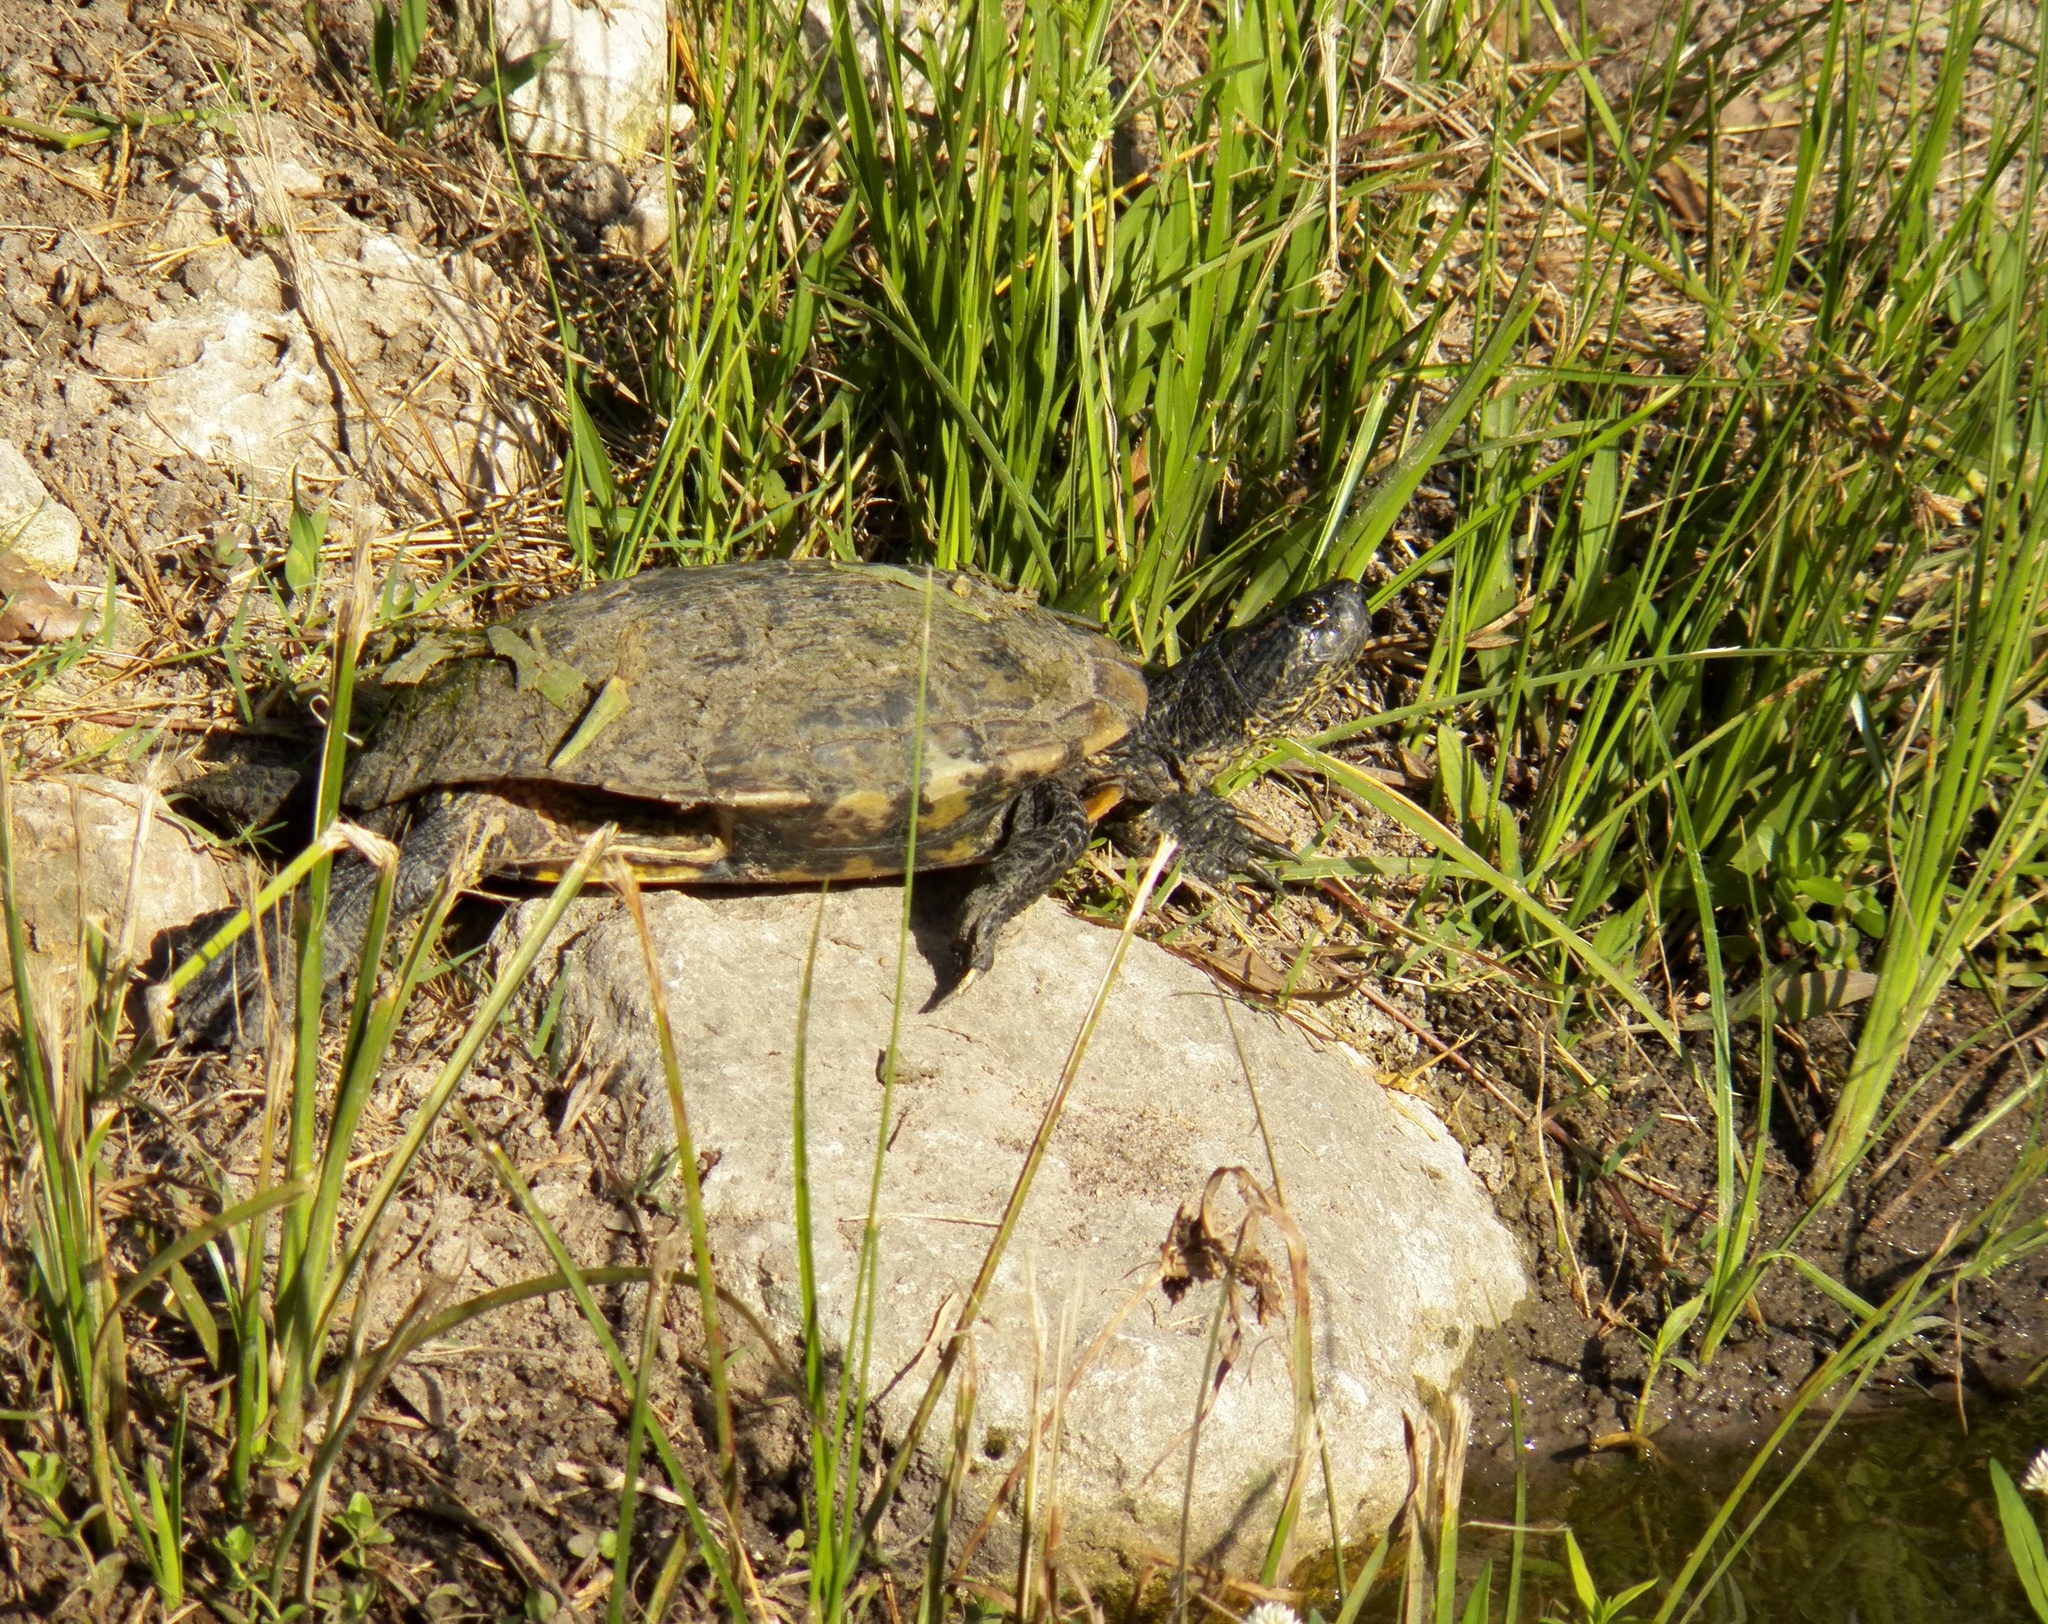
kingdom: Animalia
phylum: Chordata
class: Testudines
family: Emydidae
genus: Trachemys
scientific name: Trachemys scripta
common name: Slider
